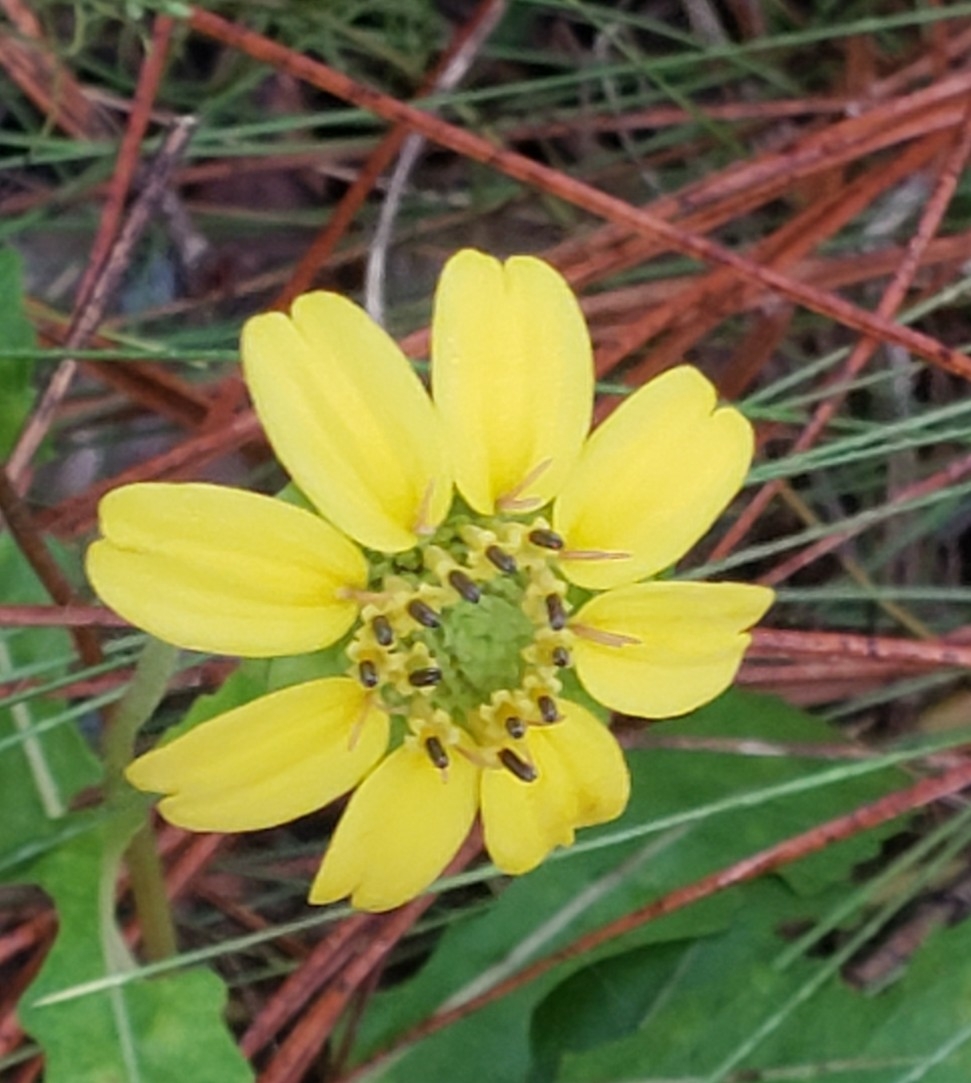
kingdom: Plantae
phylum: Tracheophyta
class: Magnoliopsida
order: Asterales
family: Asteraceae
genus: Berlandiera
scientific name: Berlandiera subacaulis
